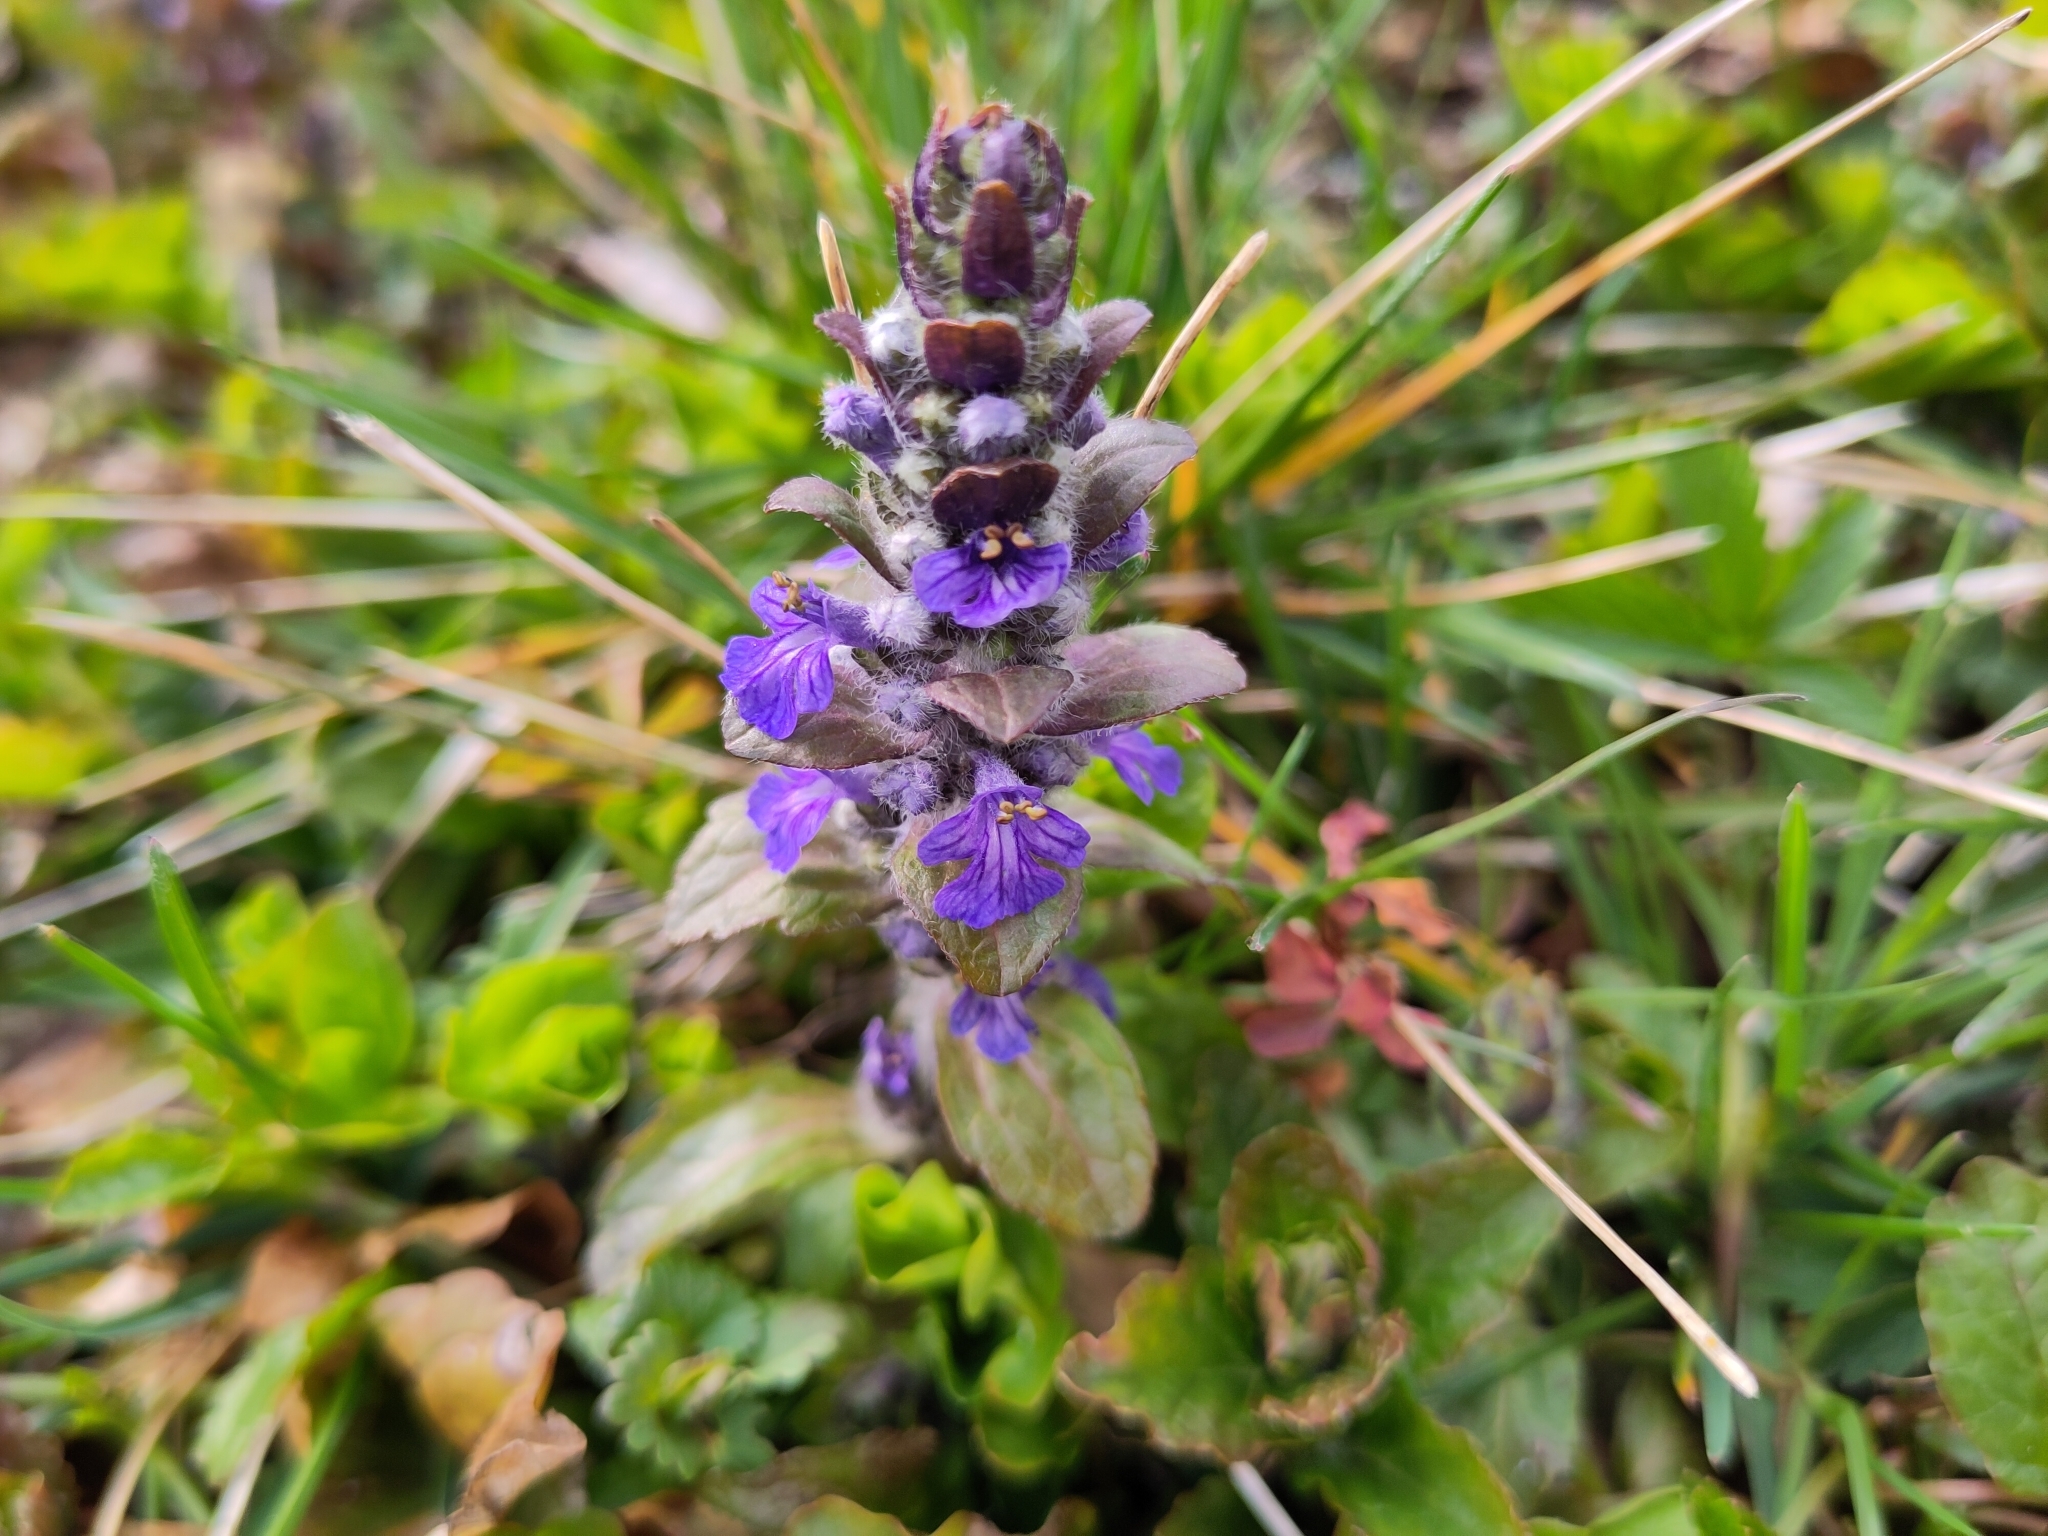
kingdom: Plantae
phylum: Tracheophyta
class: Magnoliopsida
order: Lamiales
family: Lamiaceae
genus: Ajuga
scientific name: Ajuga reptans
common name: Bugle
